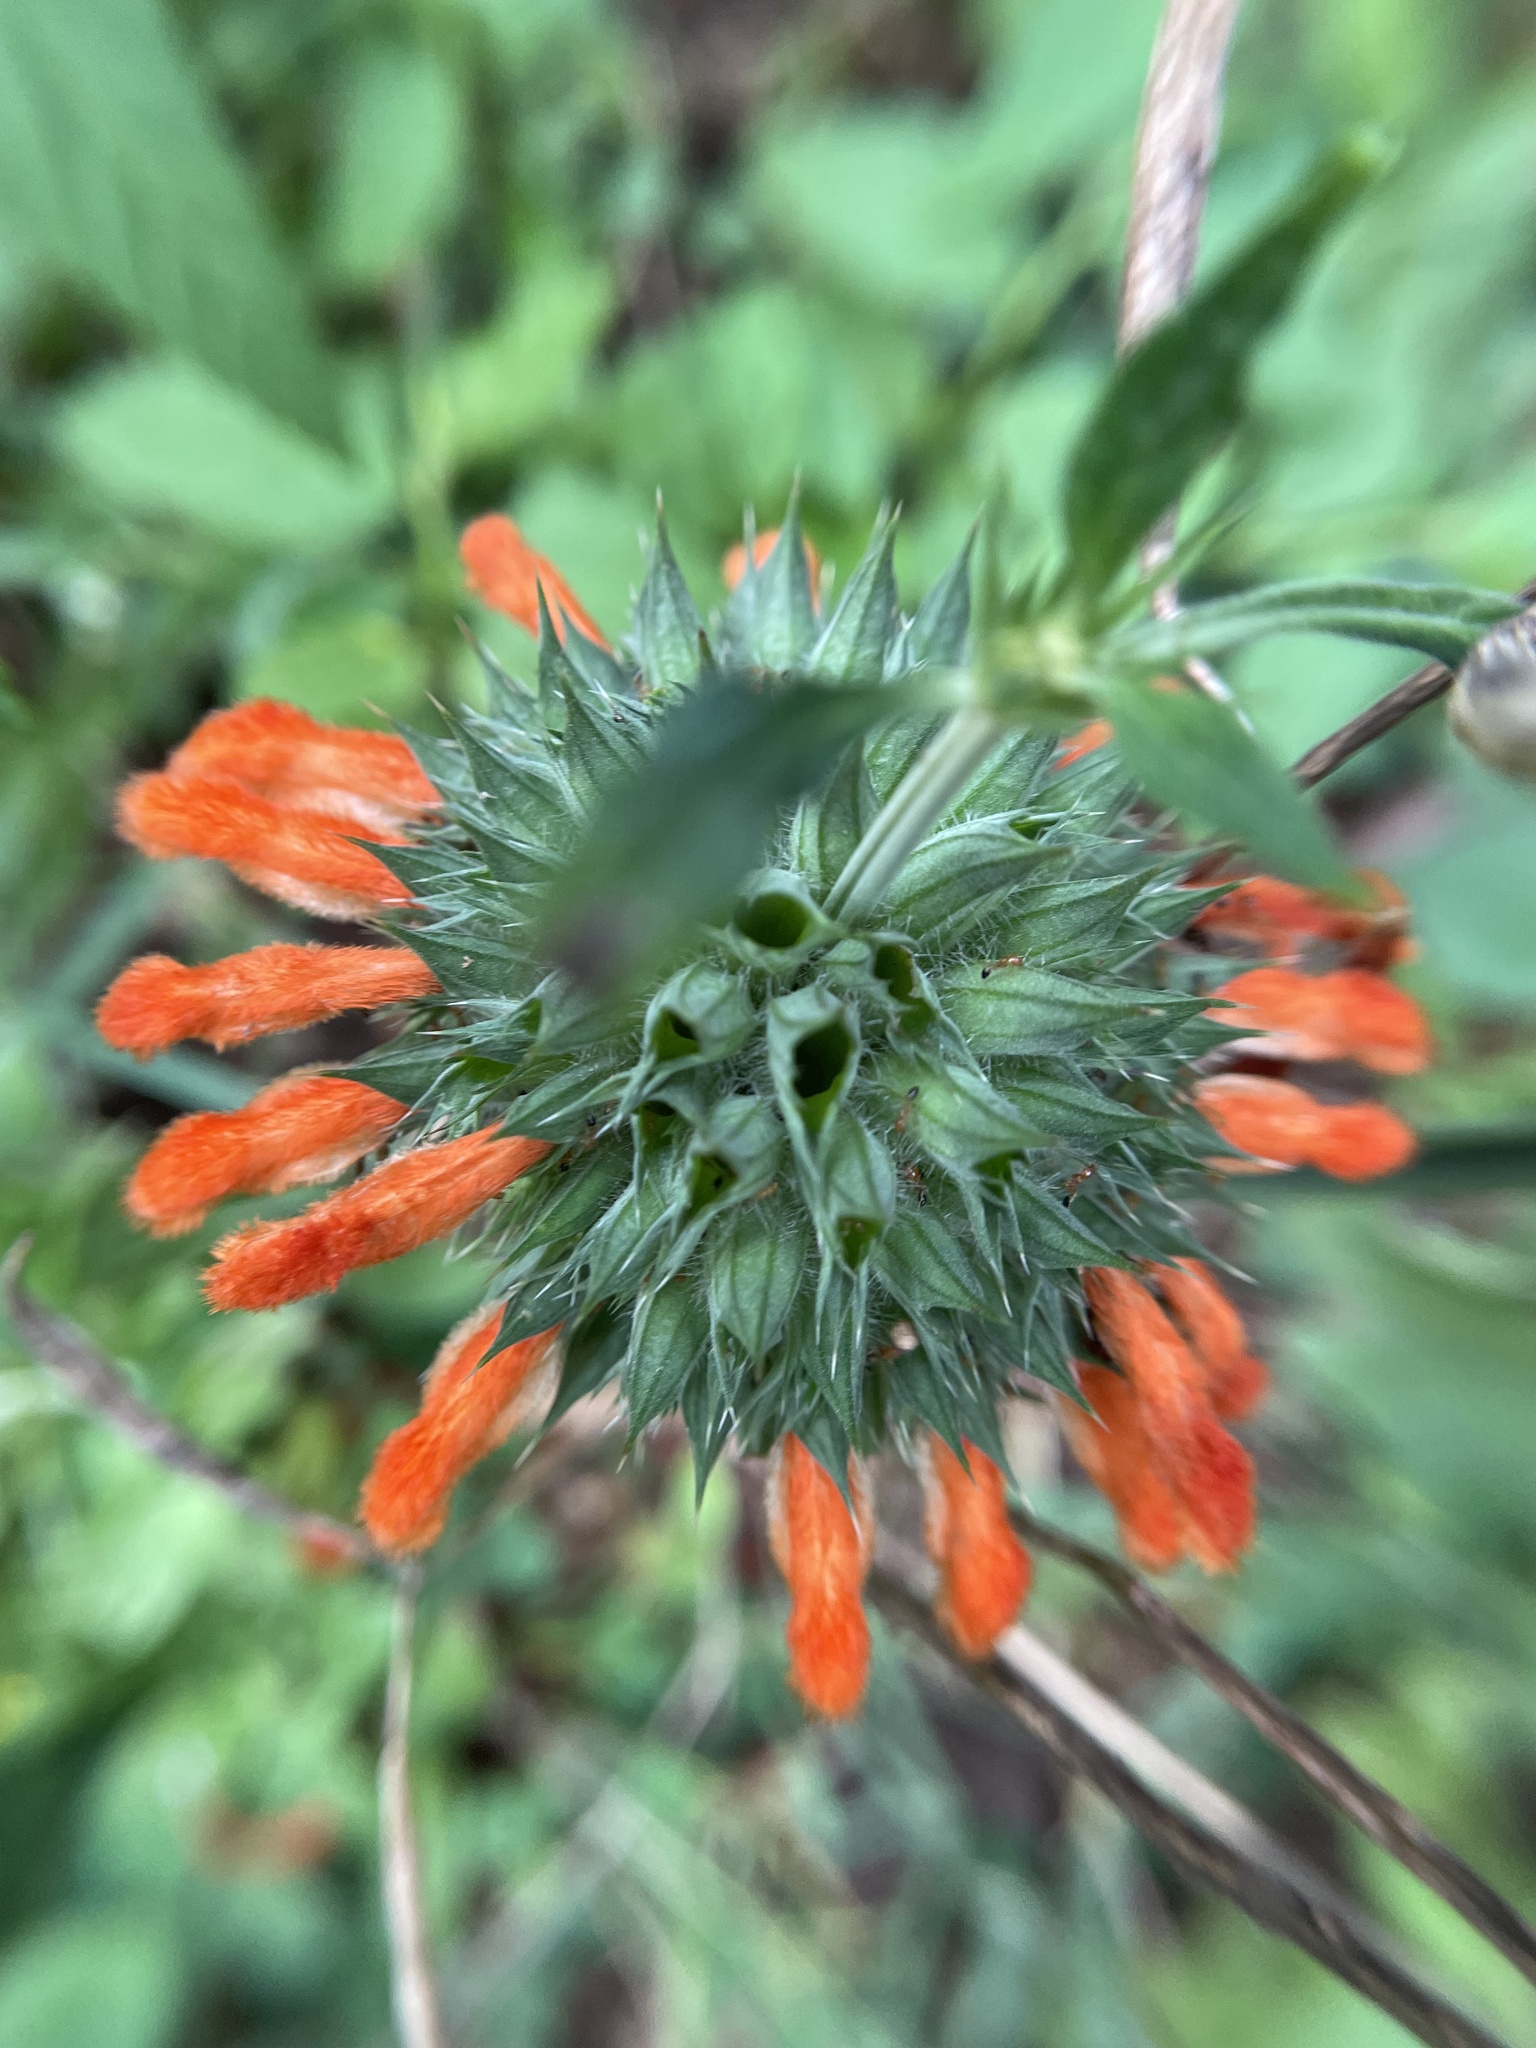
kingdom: Plantae
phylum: Tracheophyta
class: Magnoliopsida
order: Lamiales
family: Lamiaceae
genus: Leonotis
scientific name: Leonotis nepetifolia
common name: Christmas candlestick
